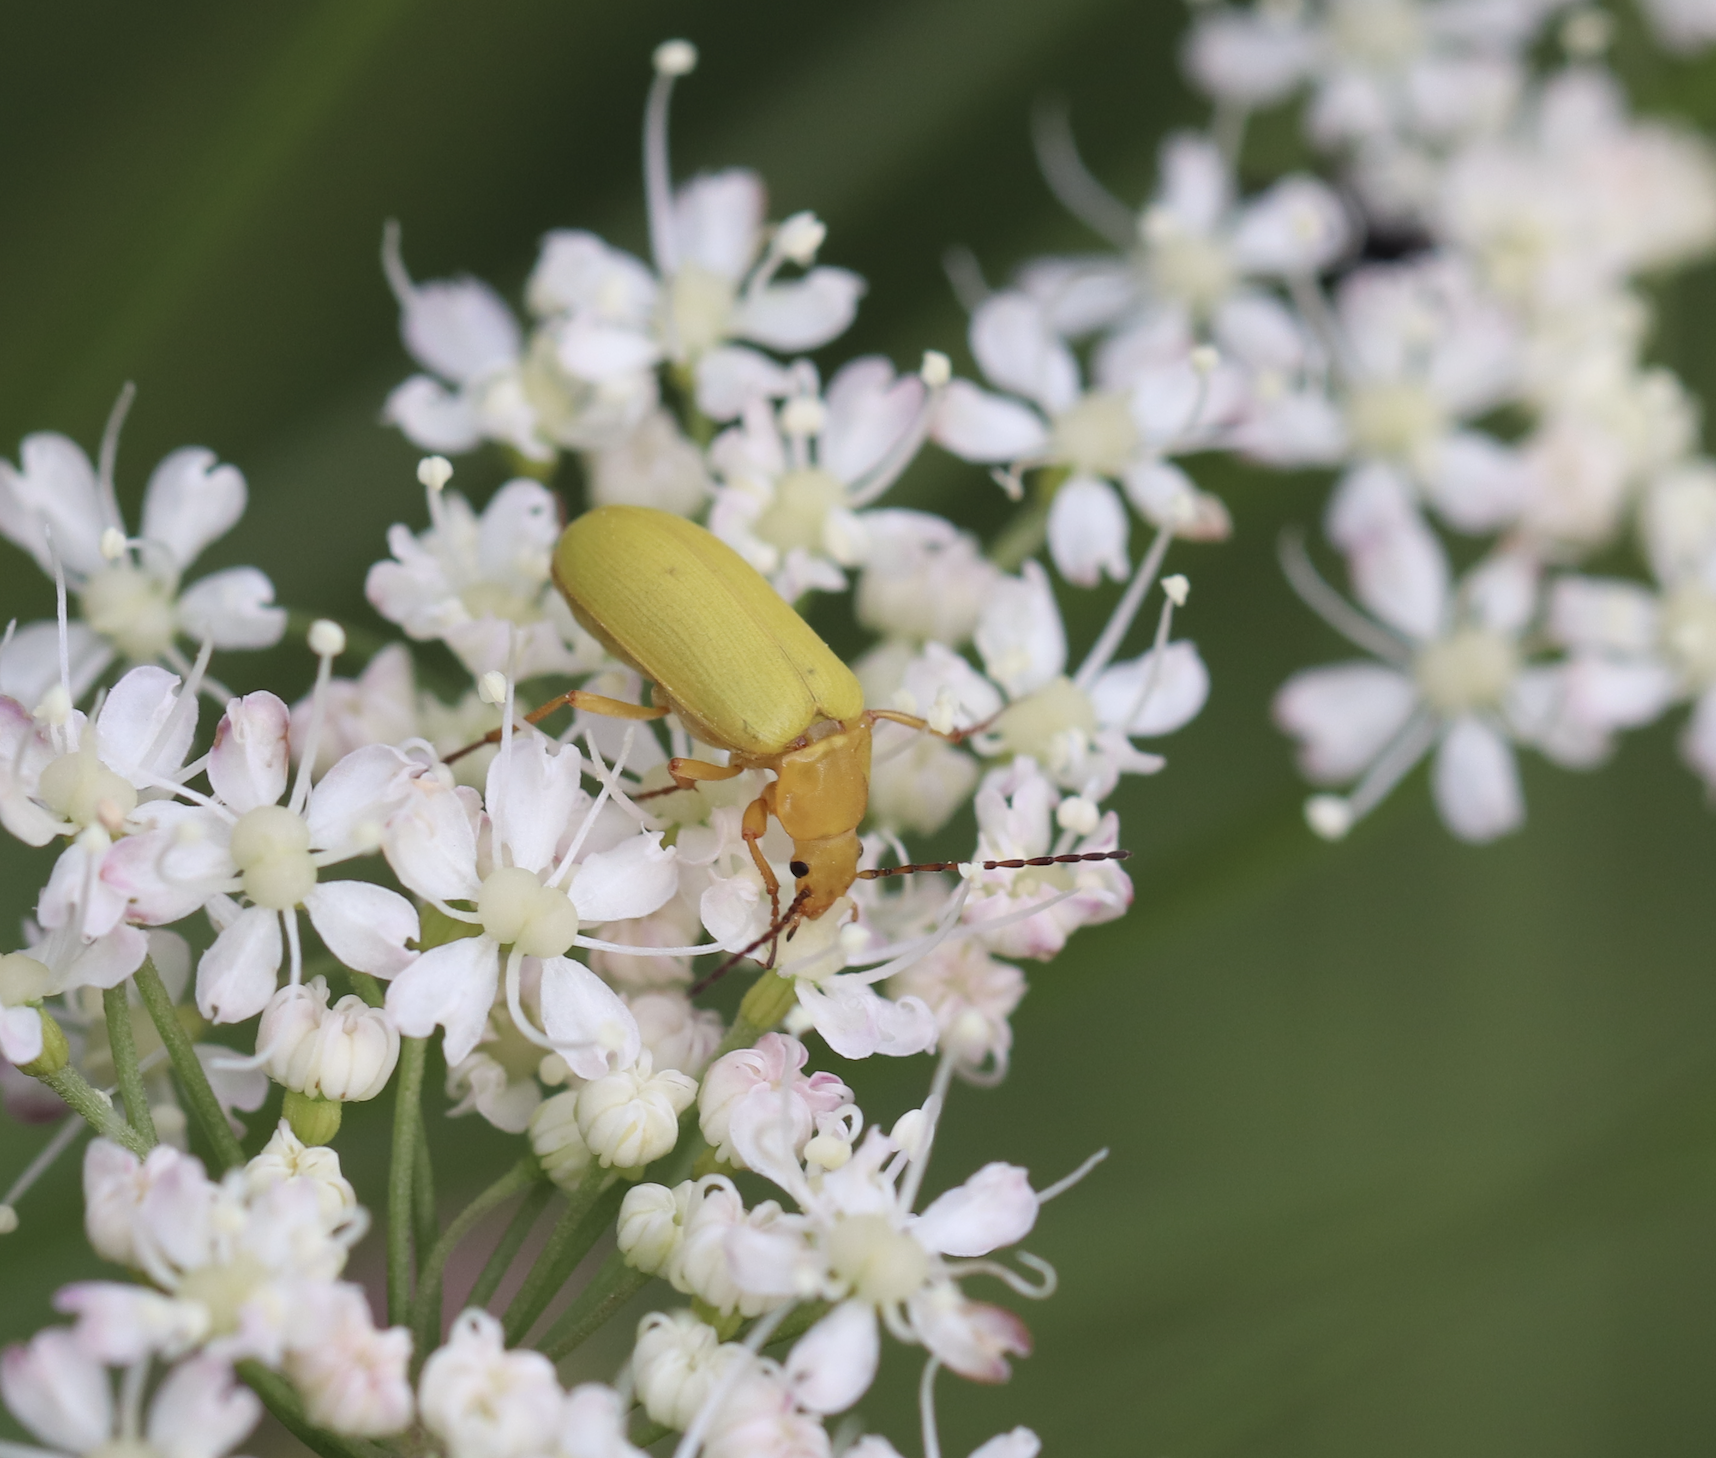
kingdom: Animalia
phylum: Arthropoda
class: Insecta
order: Coleoptera
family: Tenebrionidae
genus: Cteniopus
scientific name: Cteniopus sulphureus
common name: Sulphur beetle
